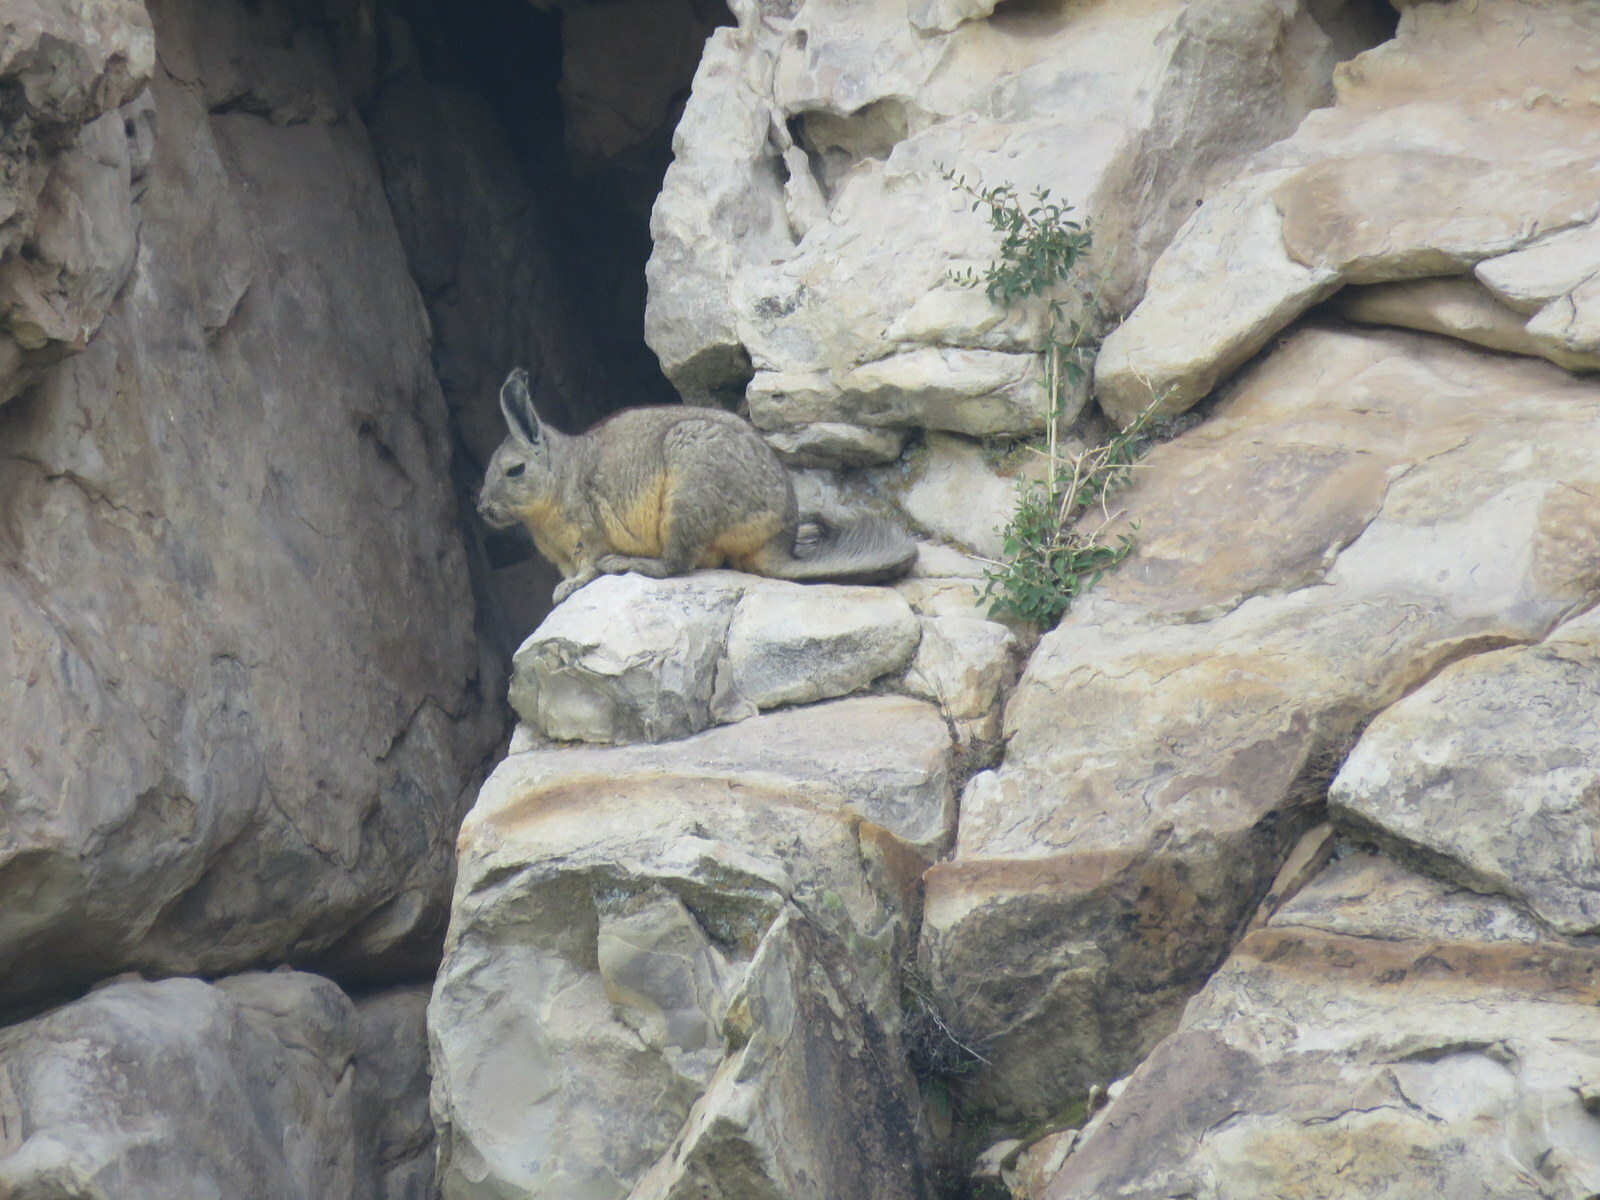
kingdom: Animalia
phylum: Chordata
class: Mammalia
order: Rodentia
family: Chinchillidae
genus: Lagidium
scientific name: Lagidium viscacia
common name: Southern viscacha
